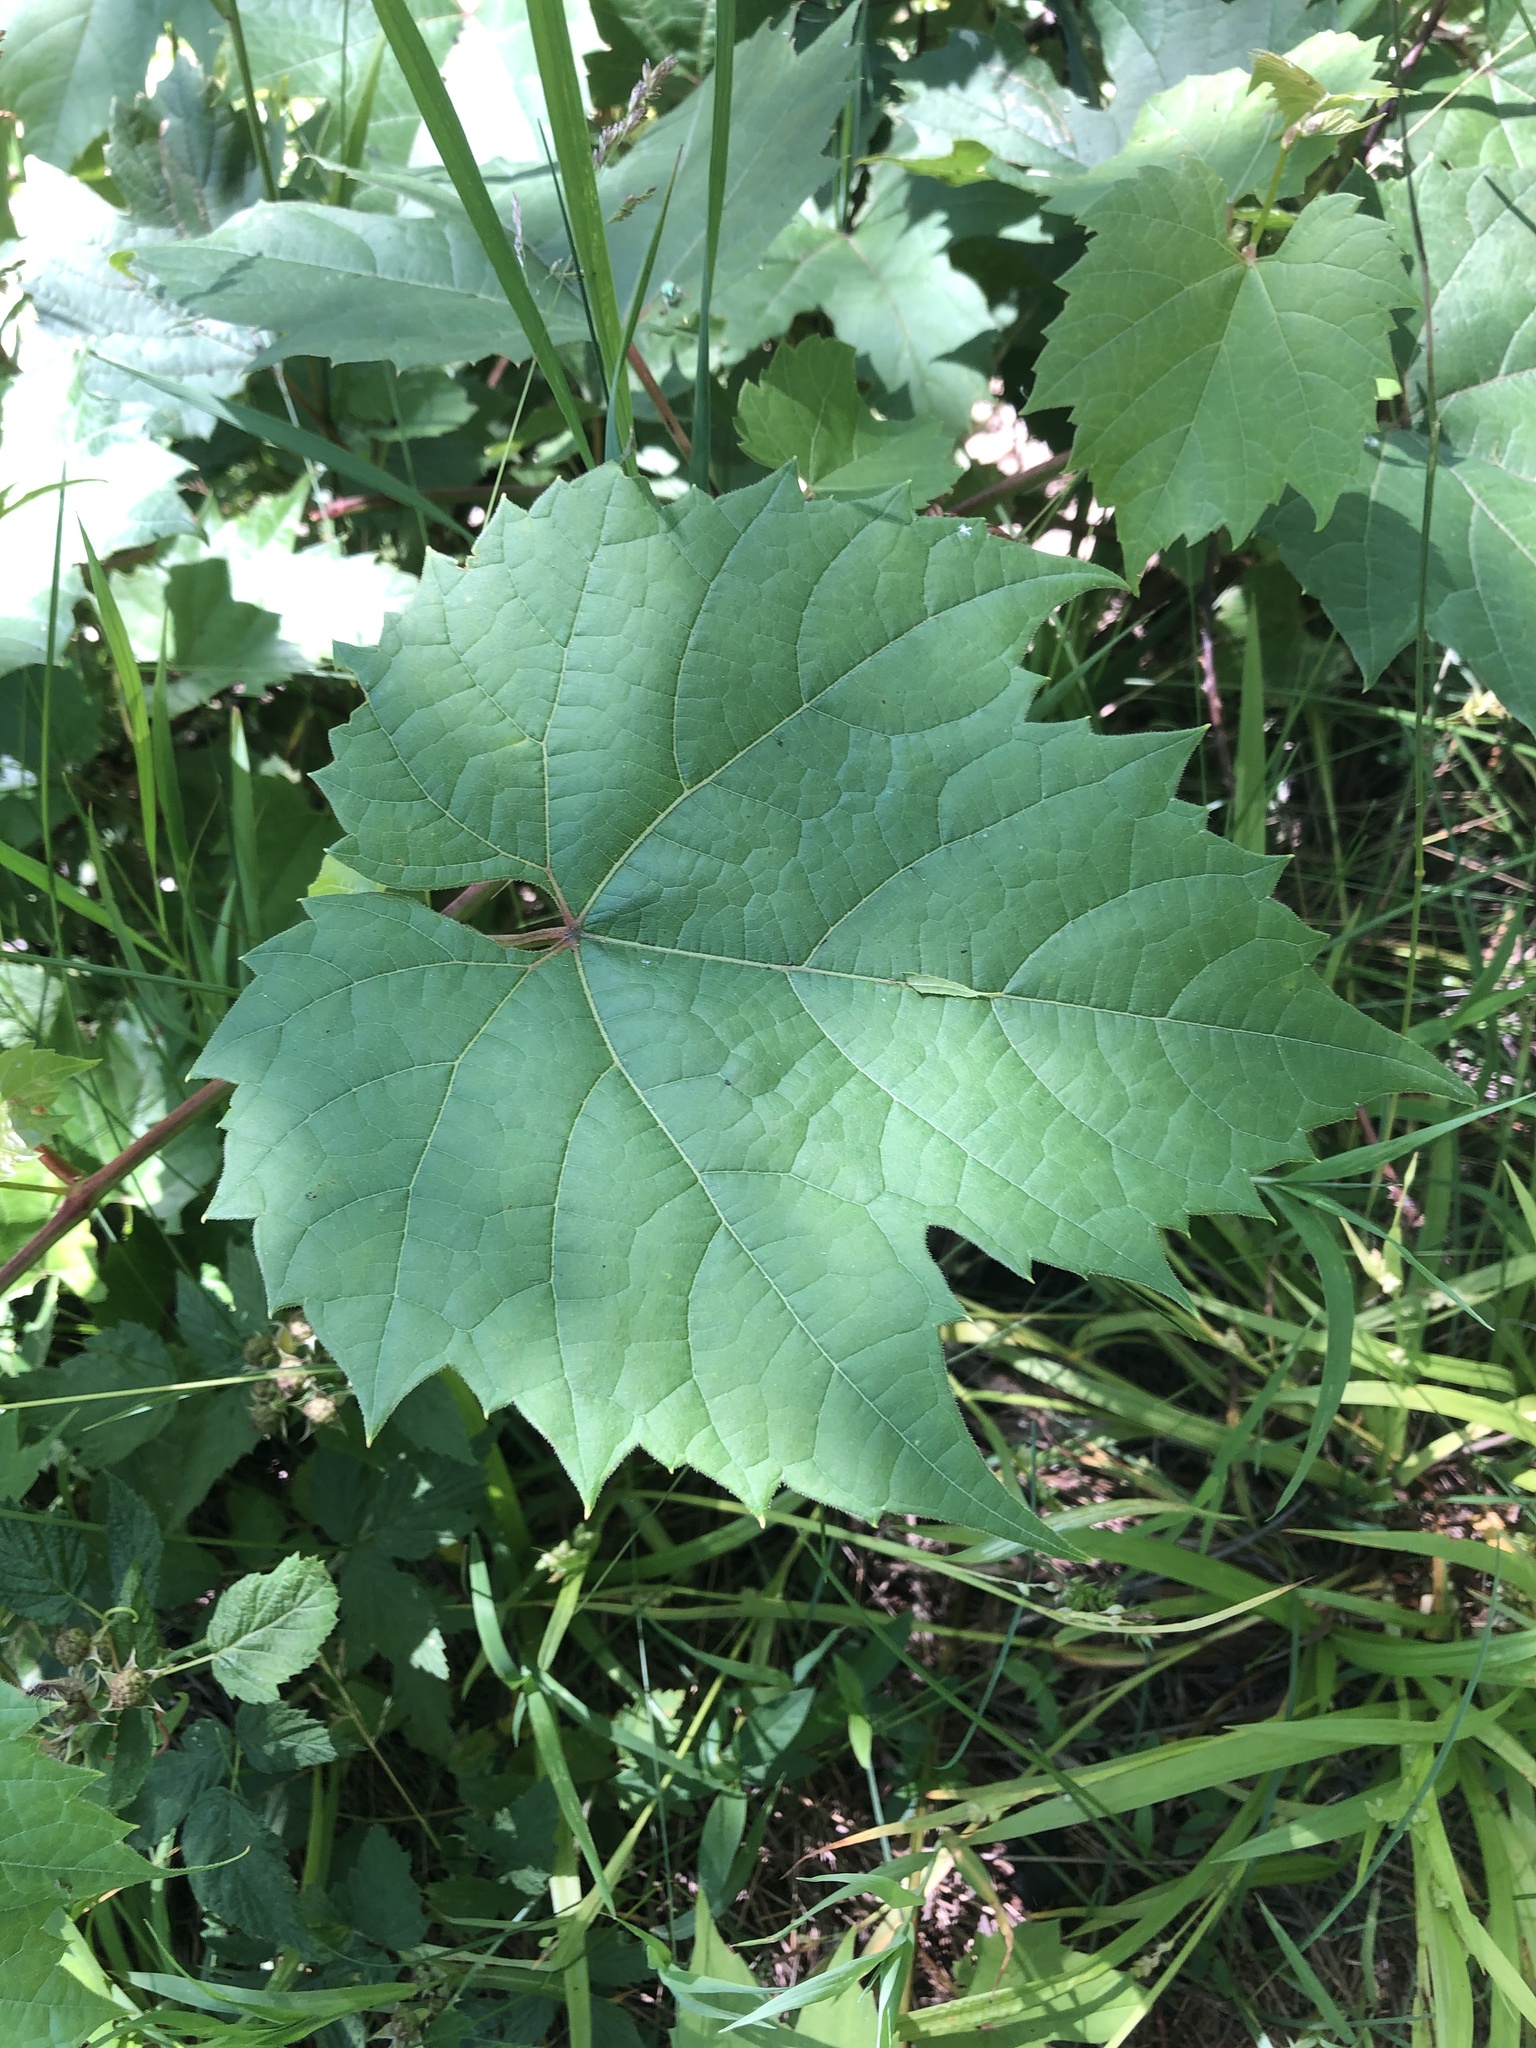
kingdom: Plantae
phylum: Tracheophyta
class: Magnoliopsida
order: Vitales
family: Vitaceae
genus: Vitis
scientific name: Vitis riparia
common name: Frost grape
